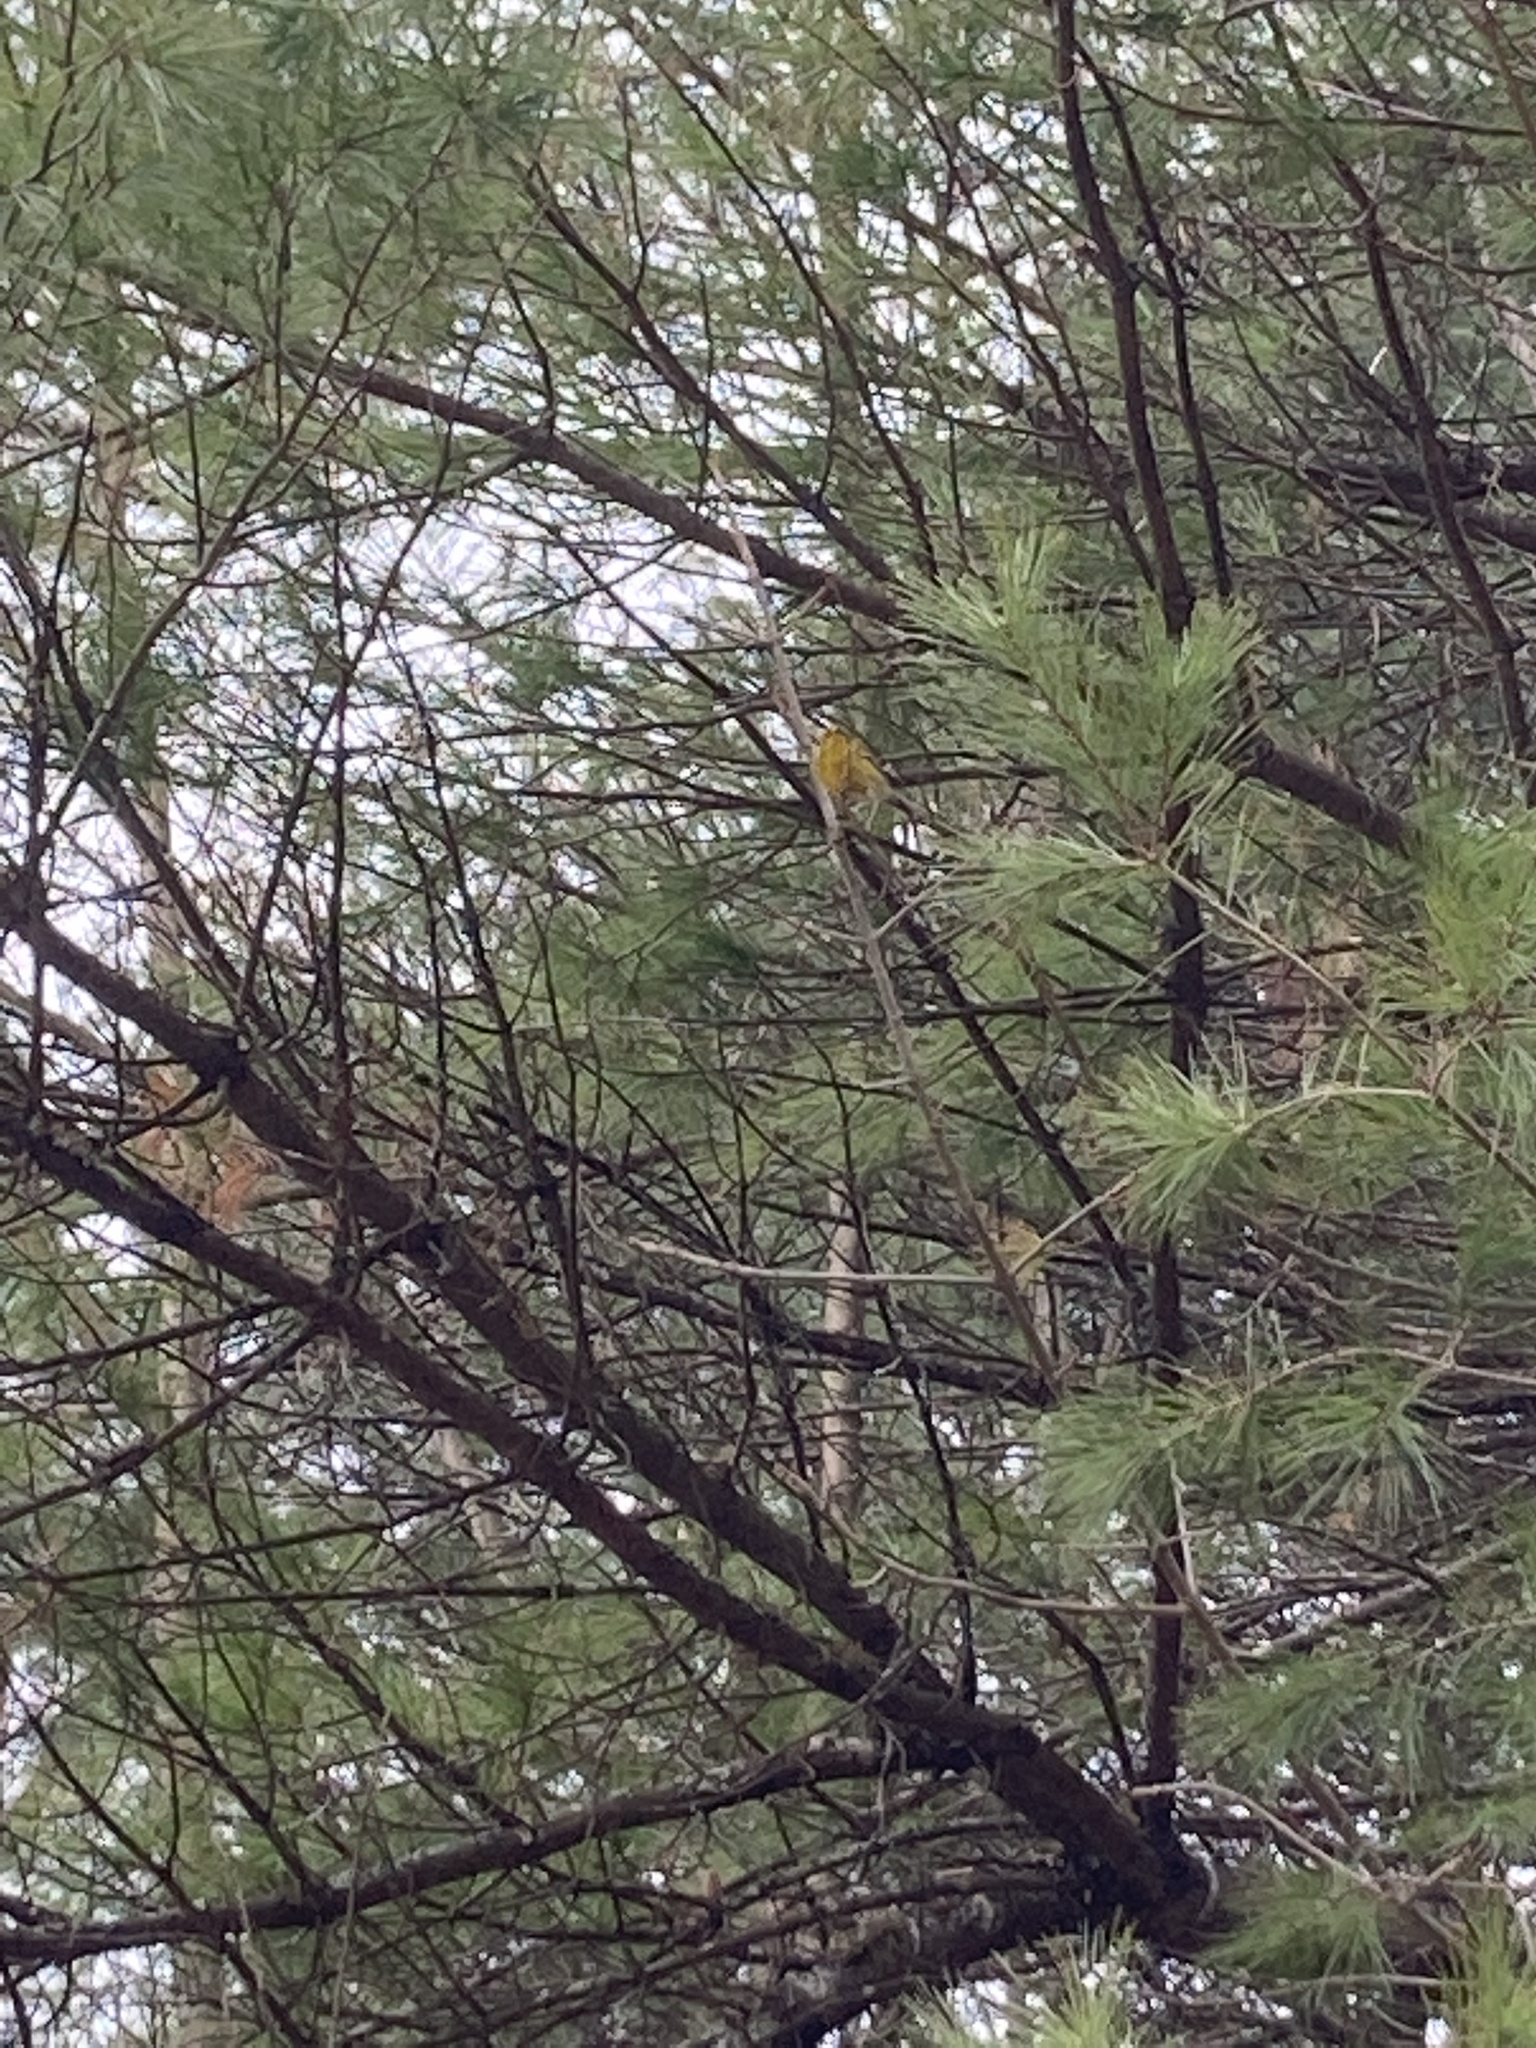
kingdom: Animalia
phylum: Chordata
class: Aves
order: Passeriformes
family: Parulidae
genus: Setophaga
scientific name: Setophaga pinus
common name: Pine warbler
